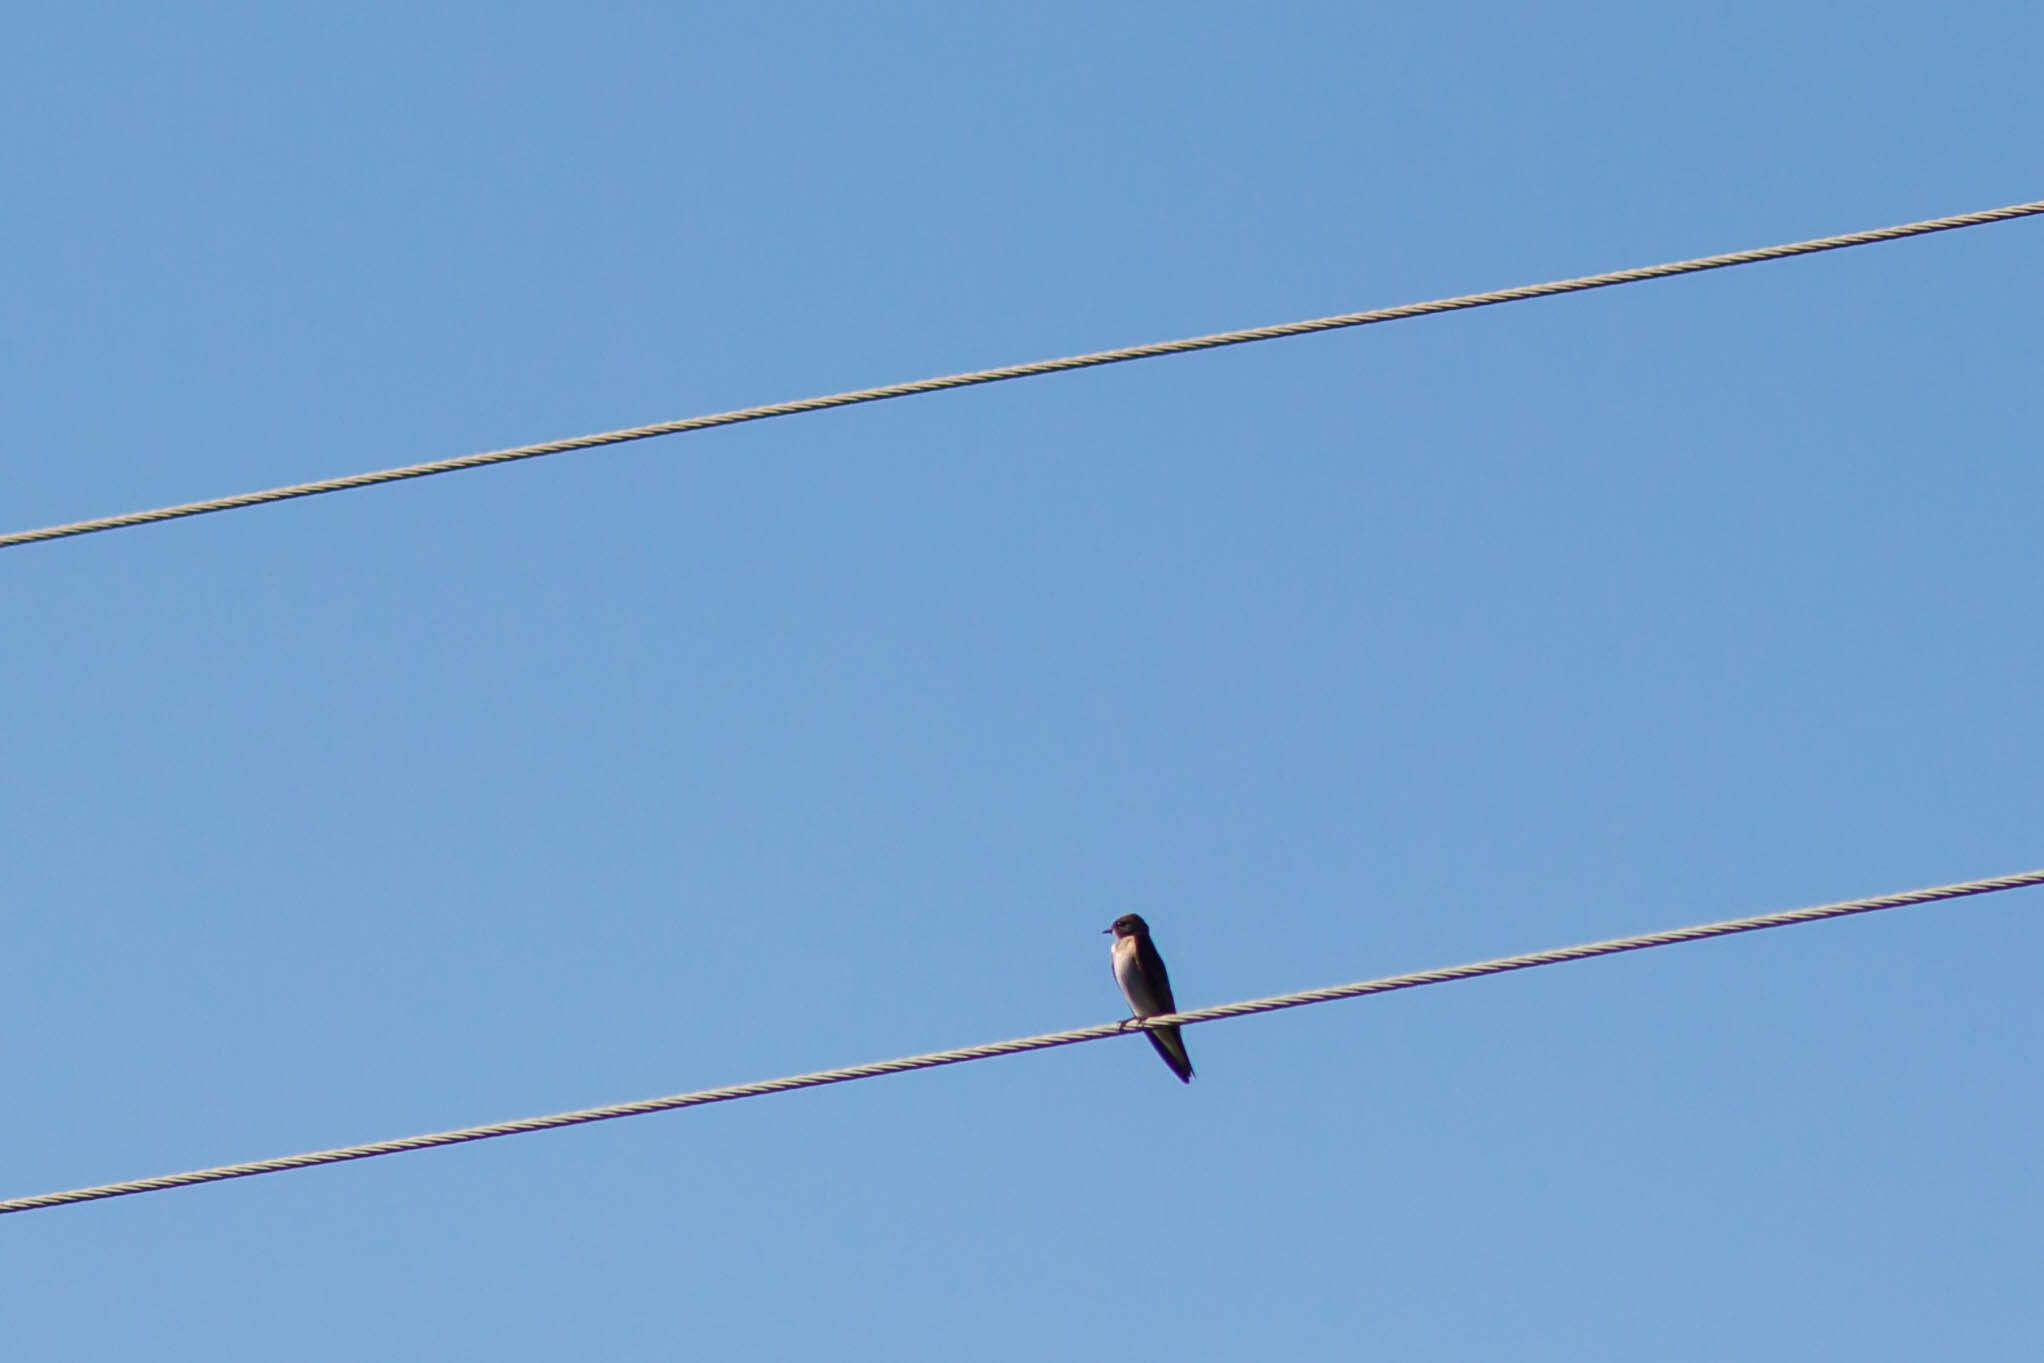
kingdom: Animalia
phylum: Chordata
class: Aves
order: Passeriformes
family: Hirundinidae
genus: Stelgidopteryx
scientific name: Stelgidopteryx serripennis
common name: Northern rough-winged swallow
